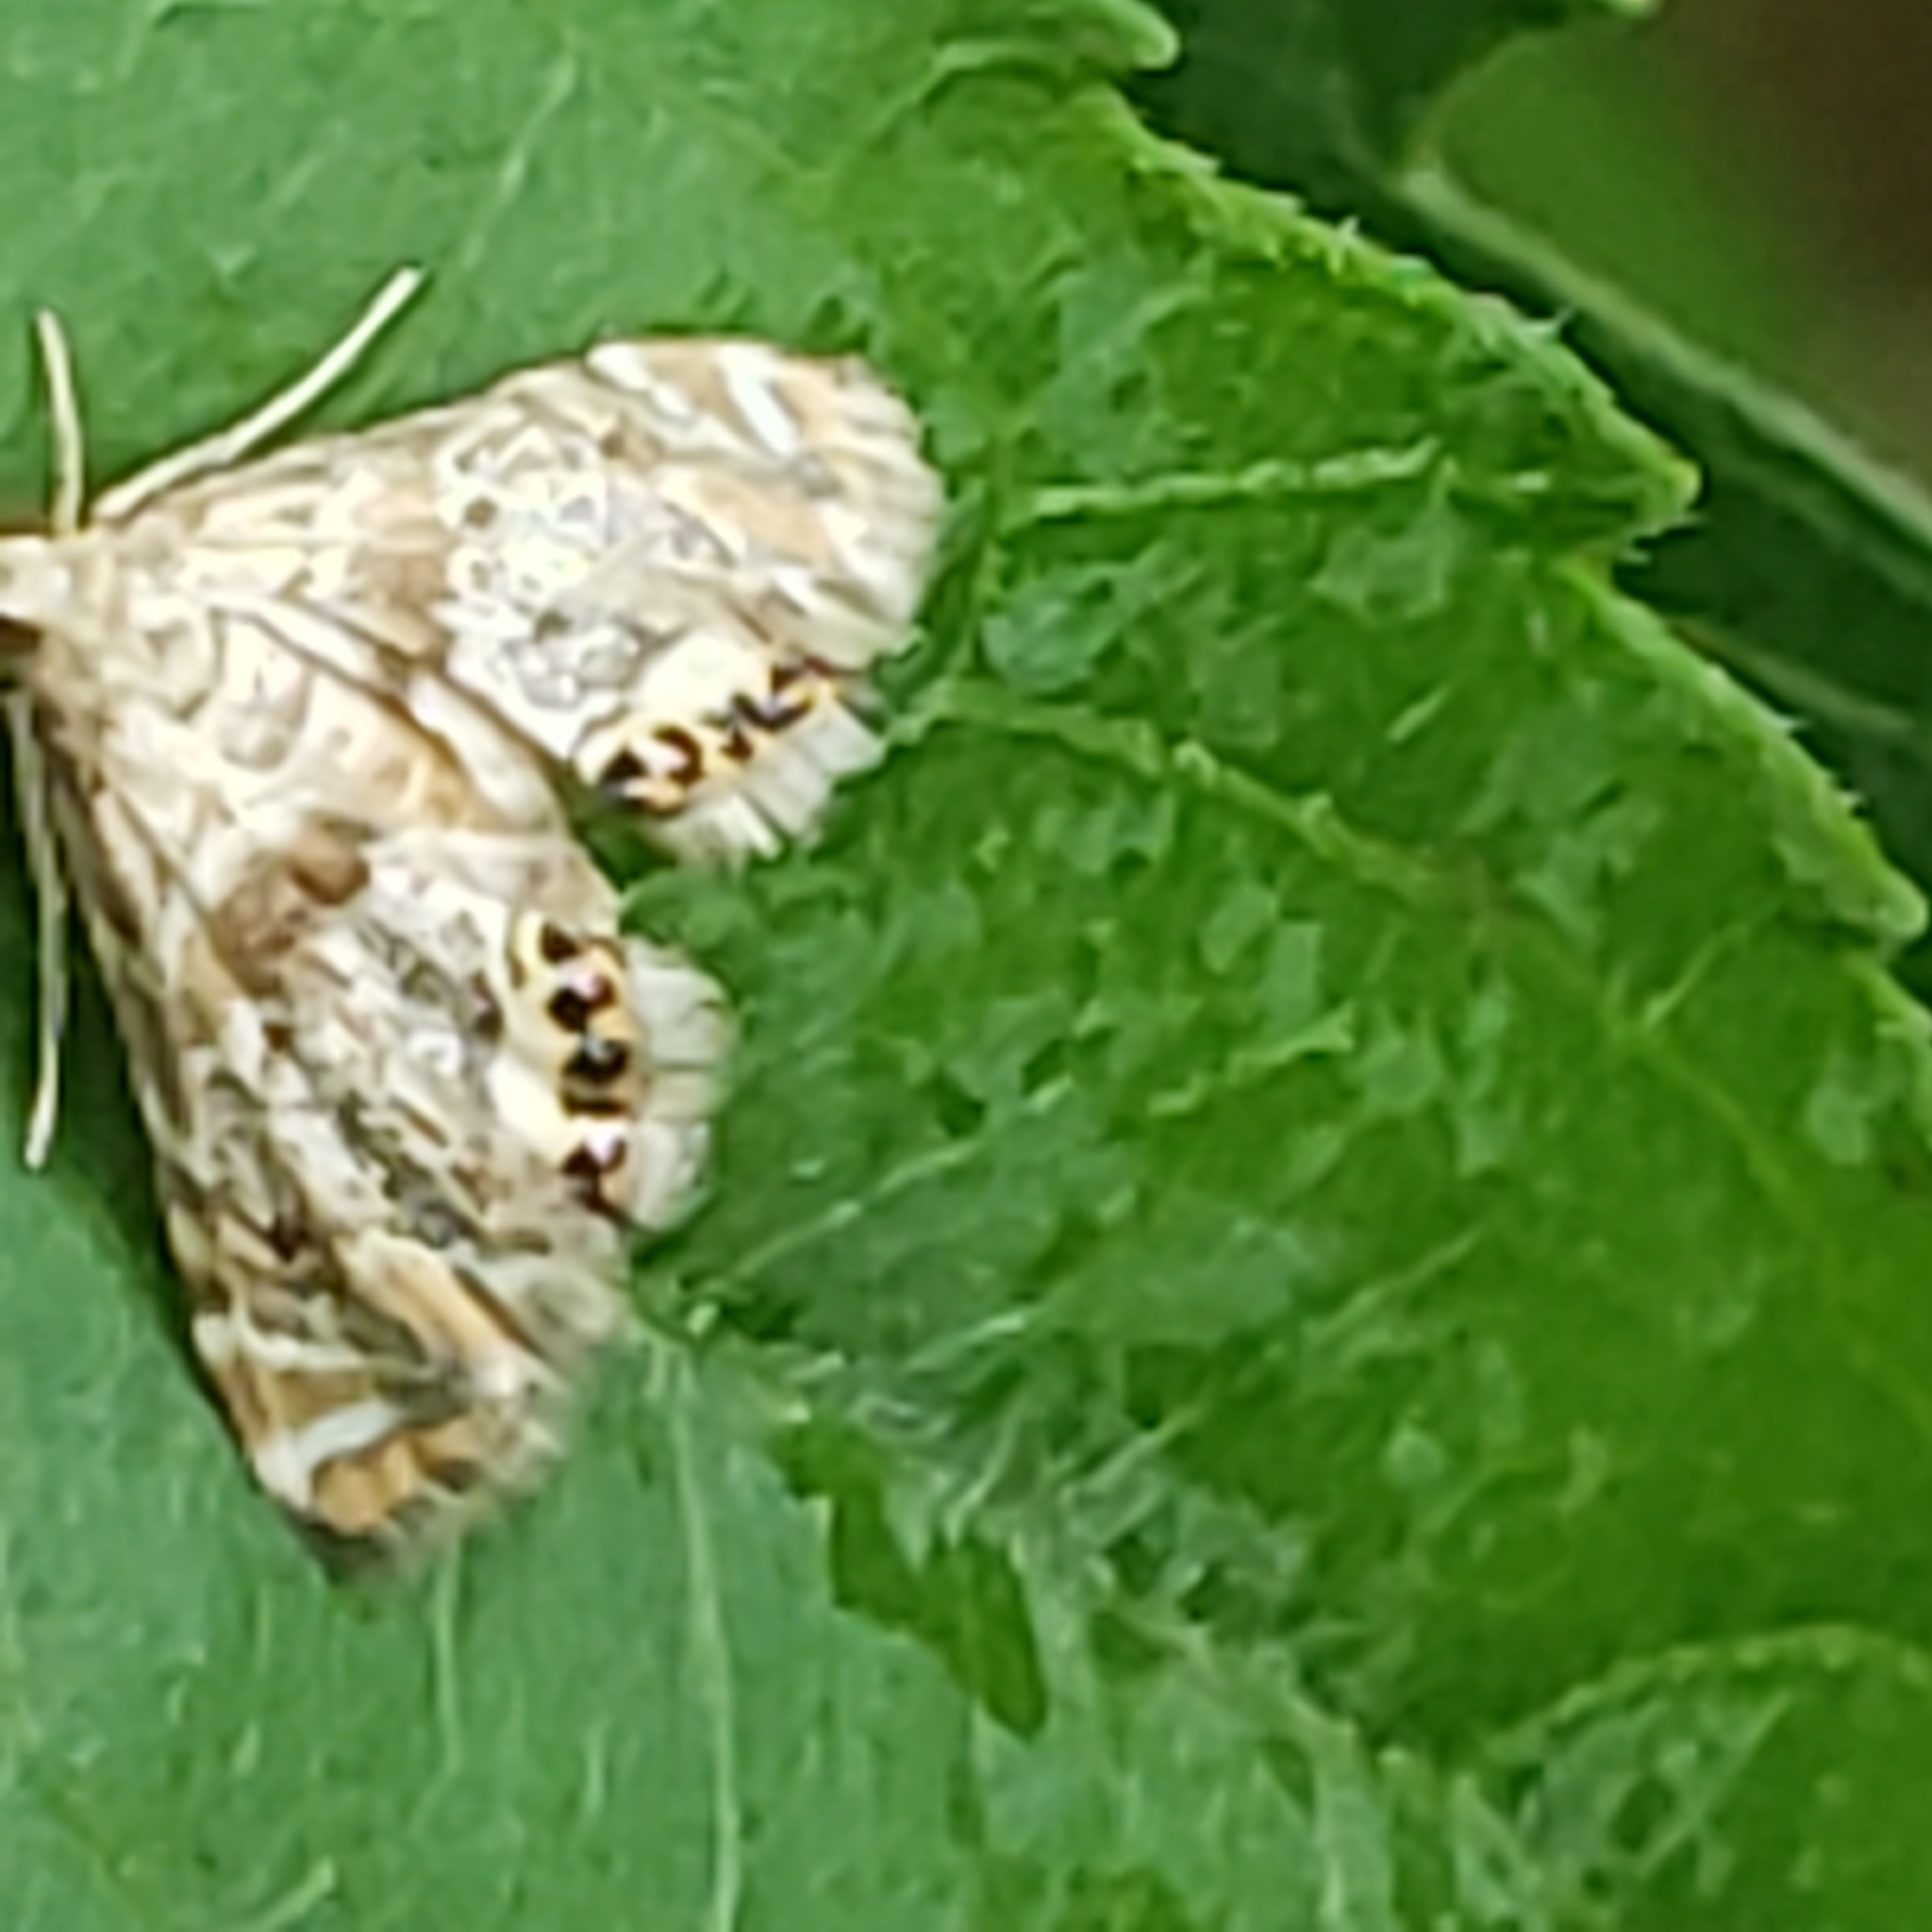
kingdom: Animalia
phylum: Arthropoda
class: Insecta
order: Lepidoptera
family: Crambidae
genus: Petrophila
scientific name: Petrophila fulicalis
